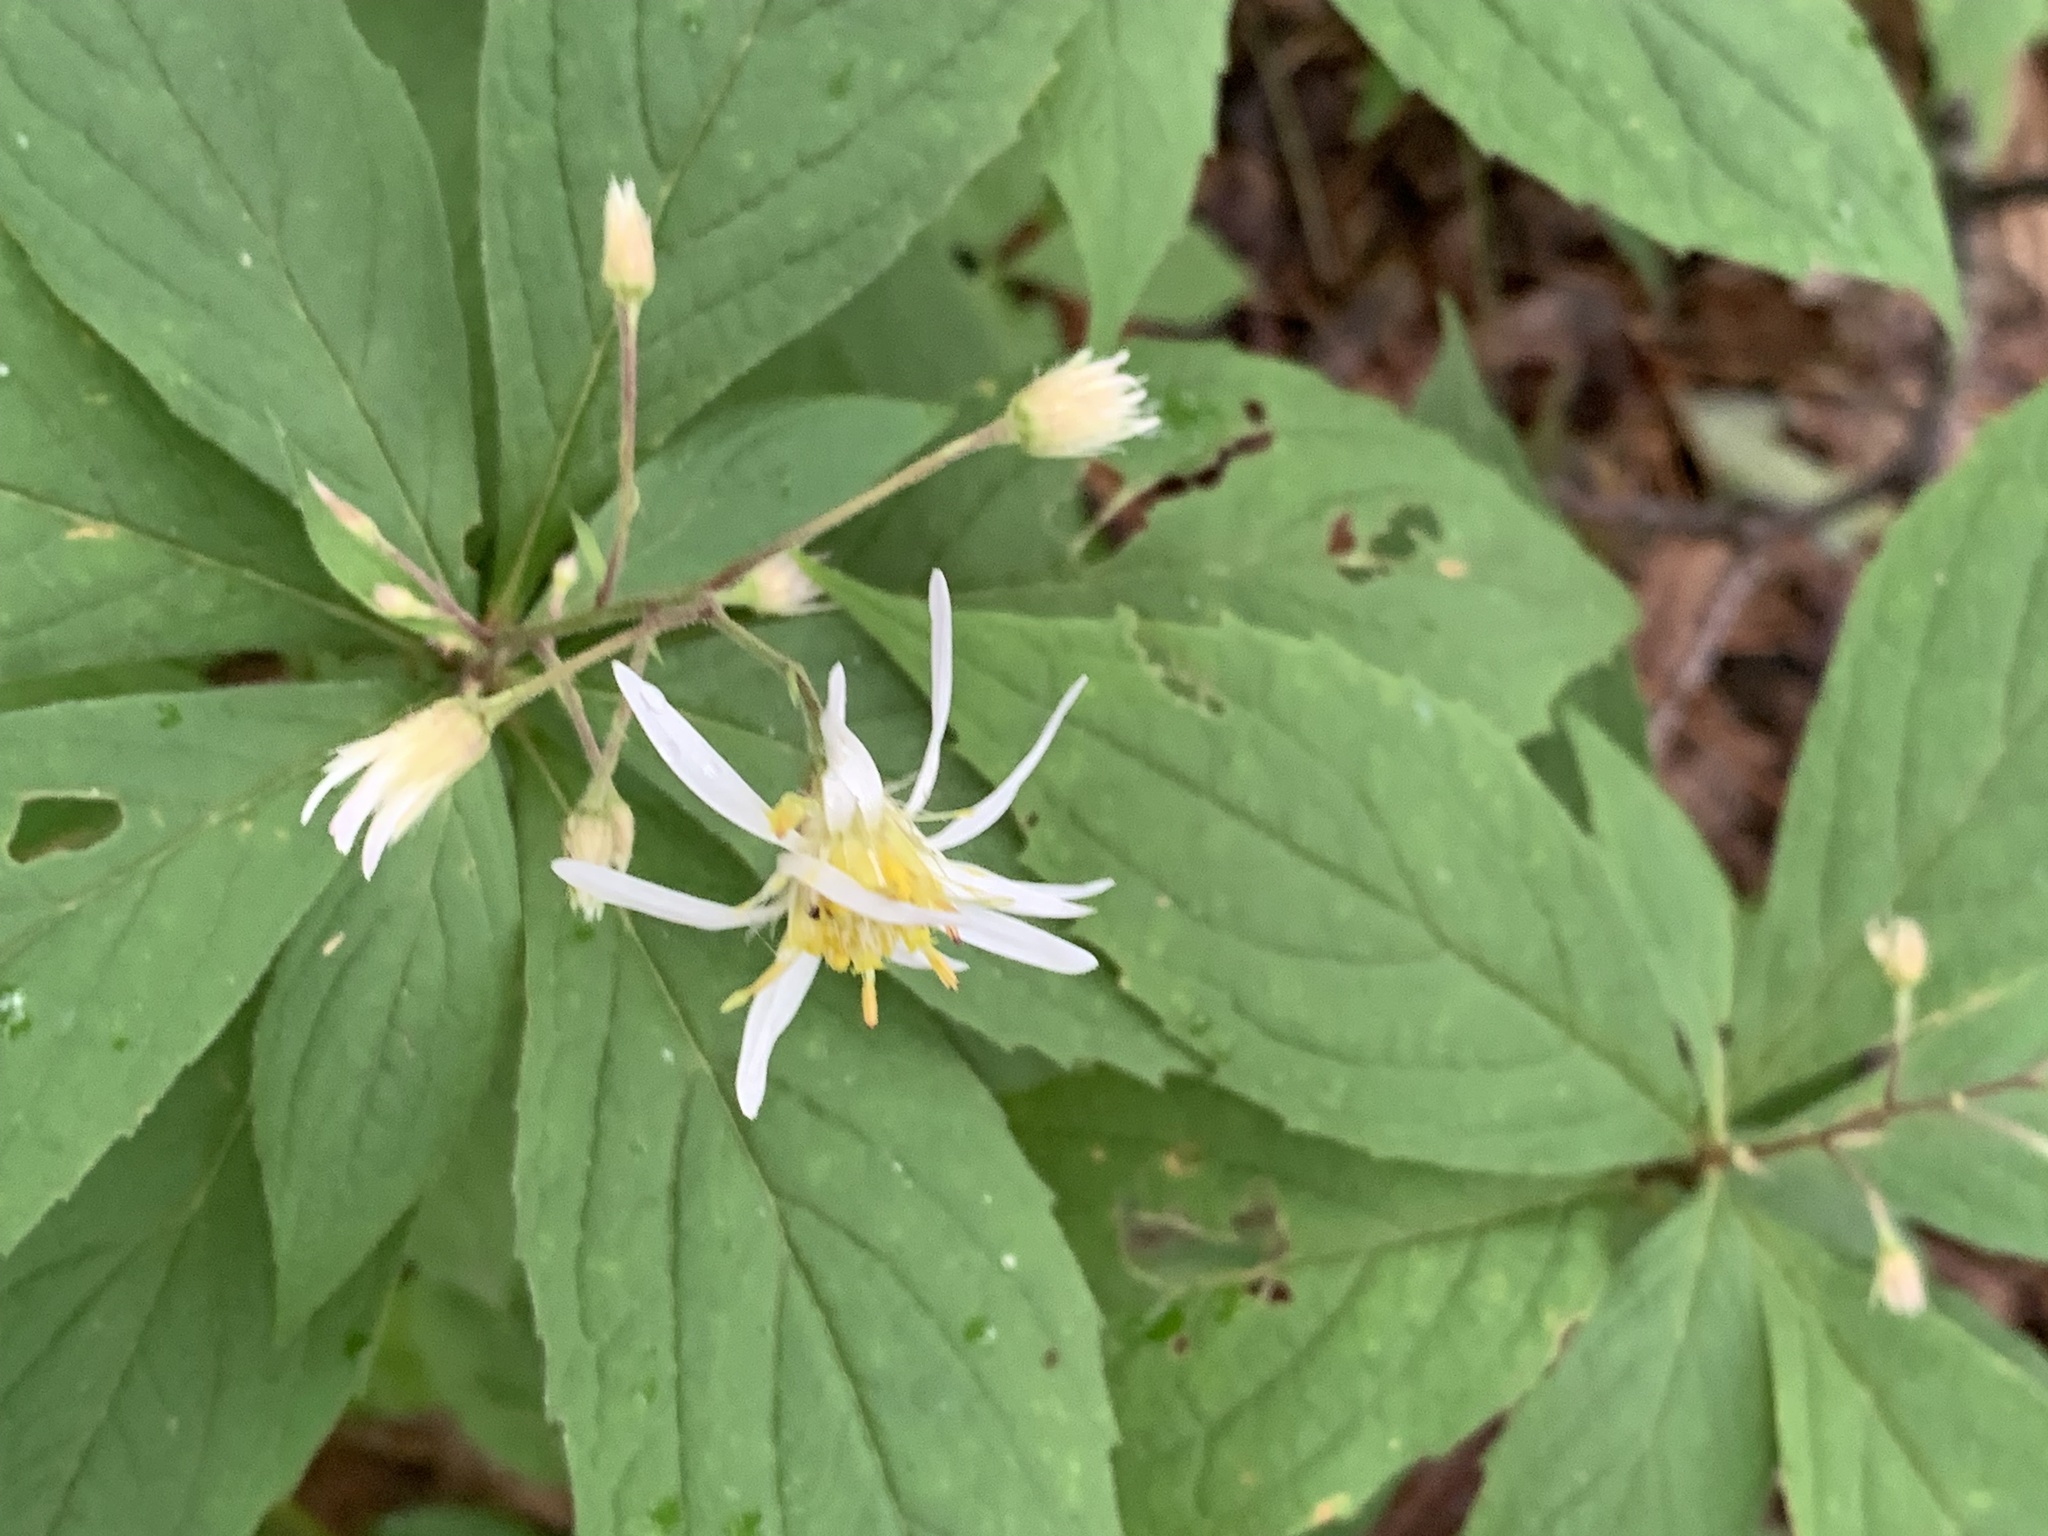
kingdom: Plantae
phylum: Tracheophyta
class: Magnoliopsida
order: Asterales
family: Asteraceae
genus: Oclemena
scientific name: Oclemena acuminata
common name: Mountain aster
